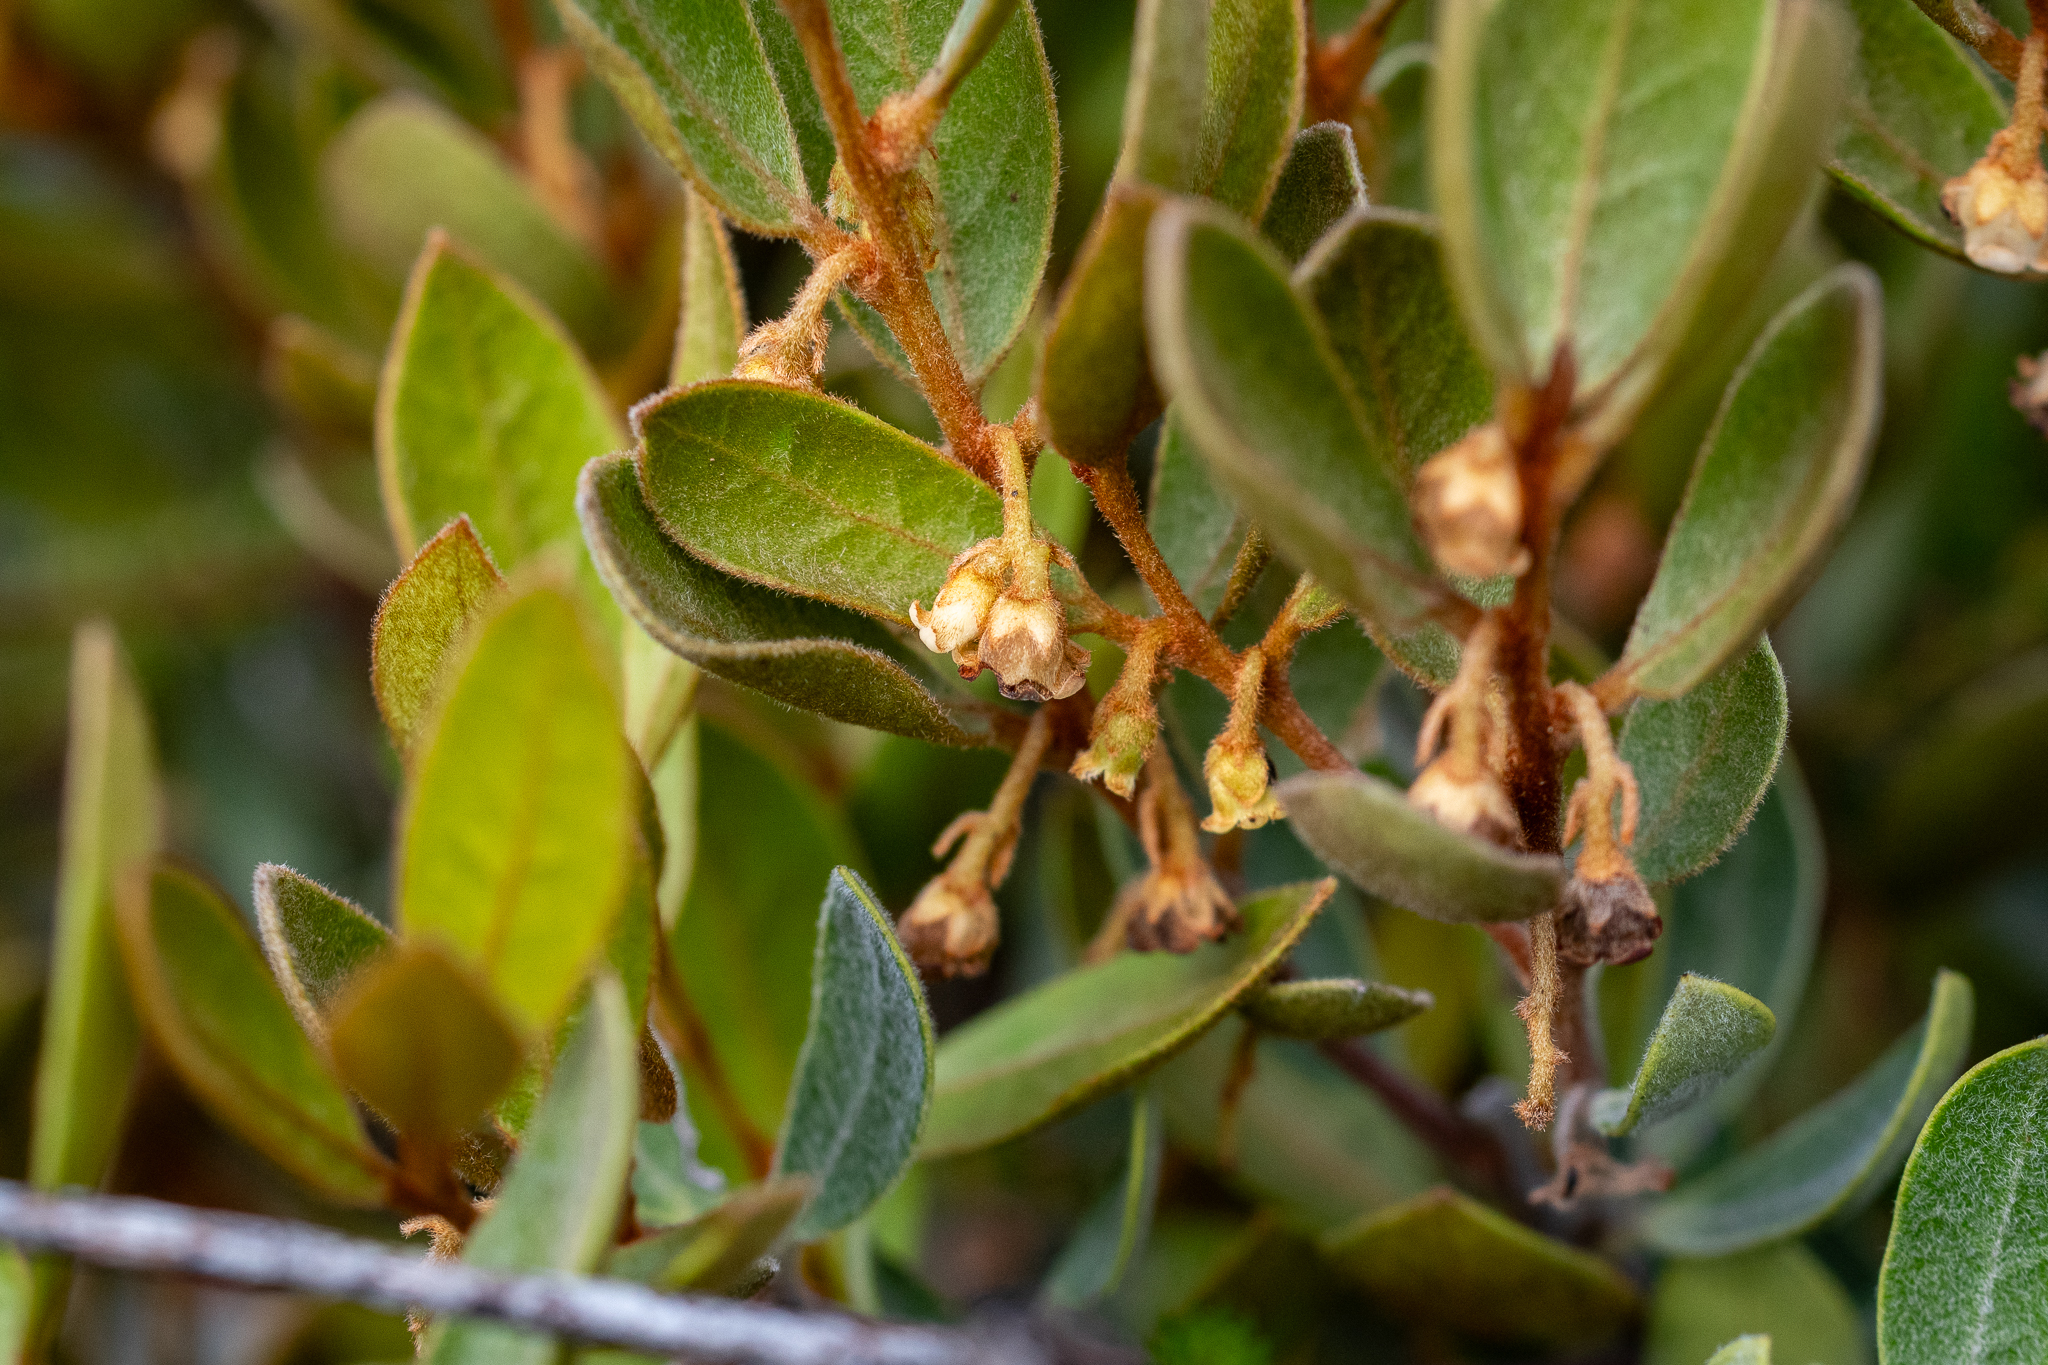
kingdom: Plantae
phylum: Tracheophyta
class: Magnoliopsida
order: Ericales
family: Ebenaceae
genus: Euclea
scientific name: Euclea tomentosa
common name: Honey guarri
